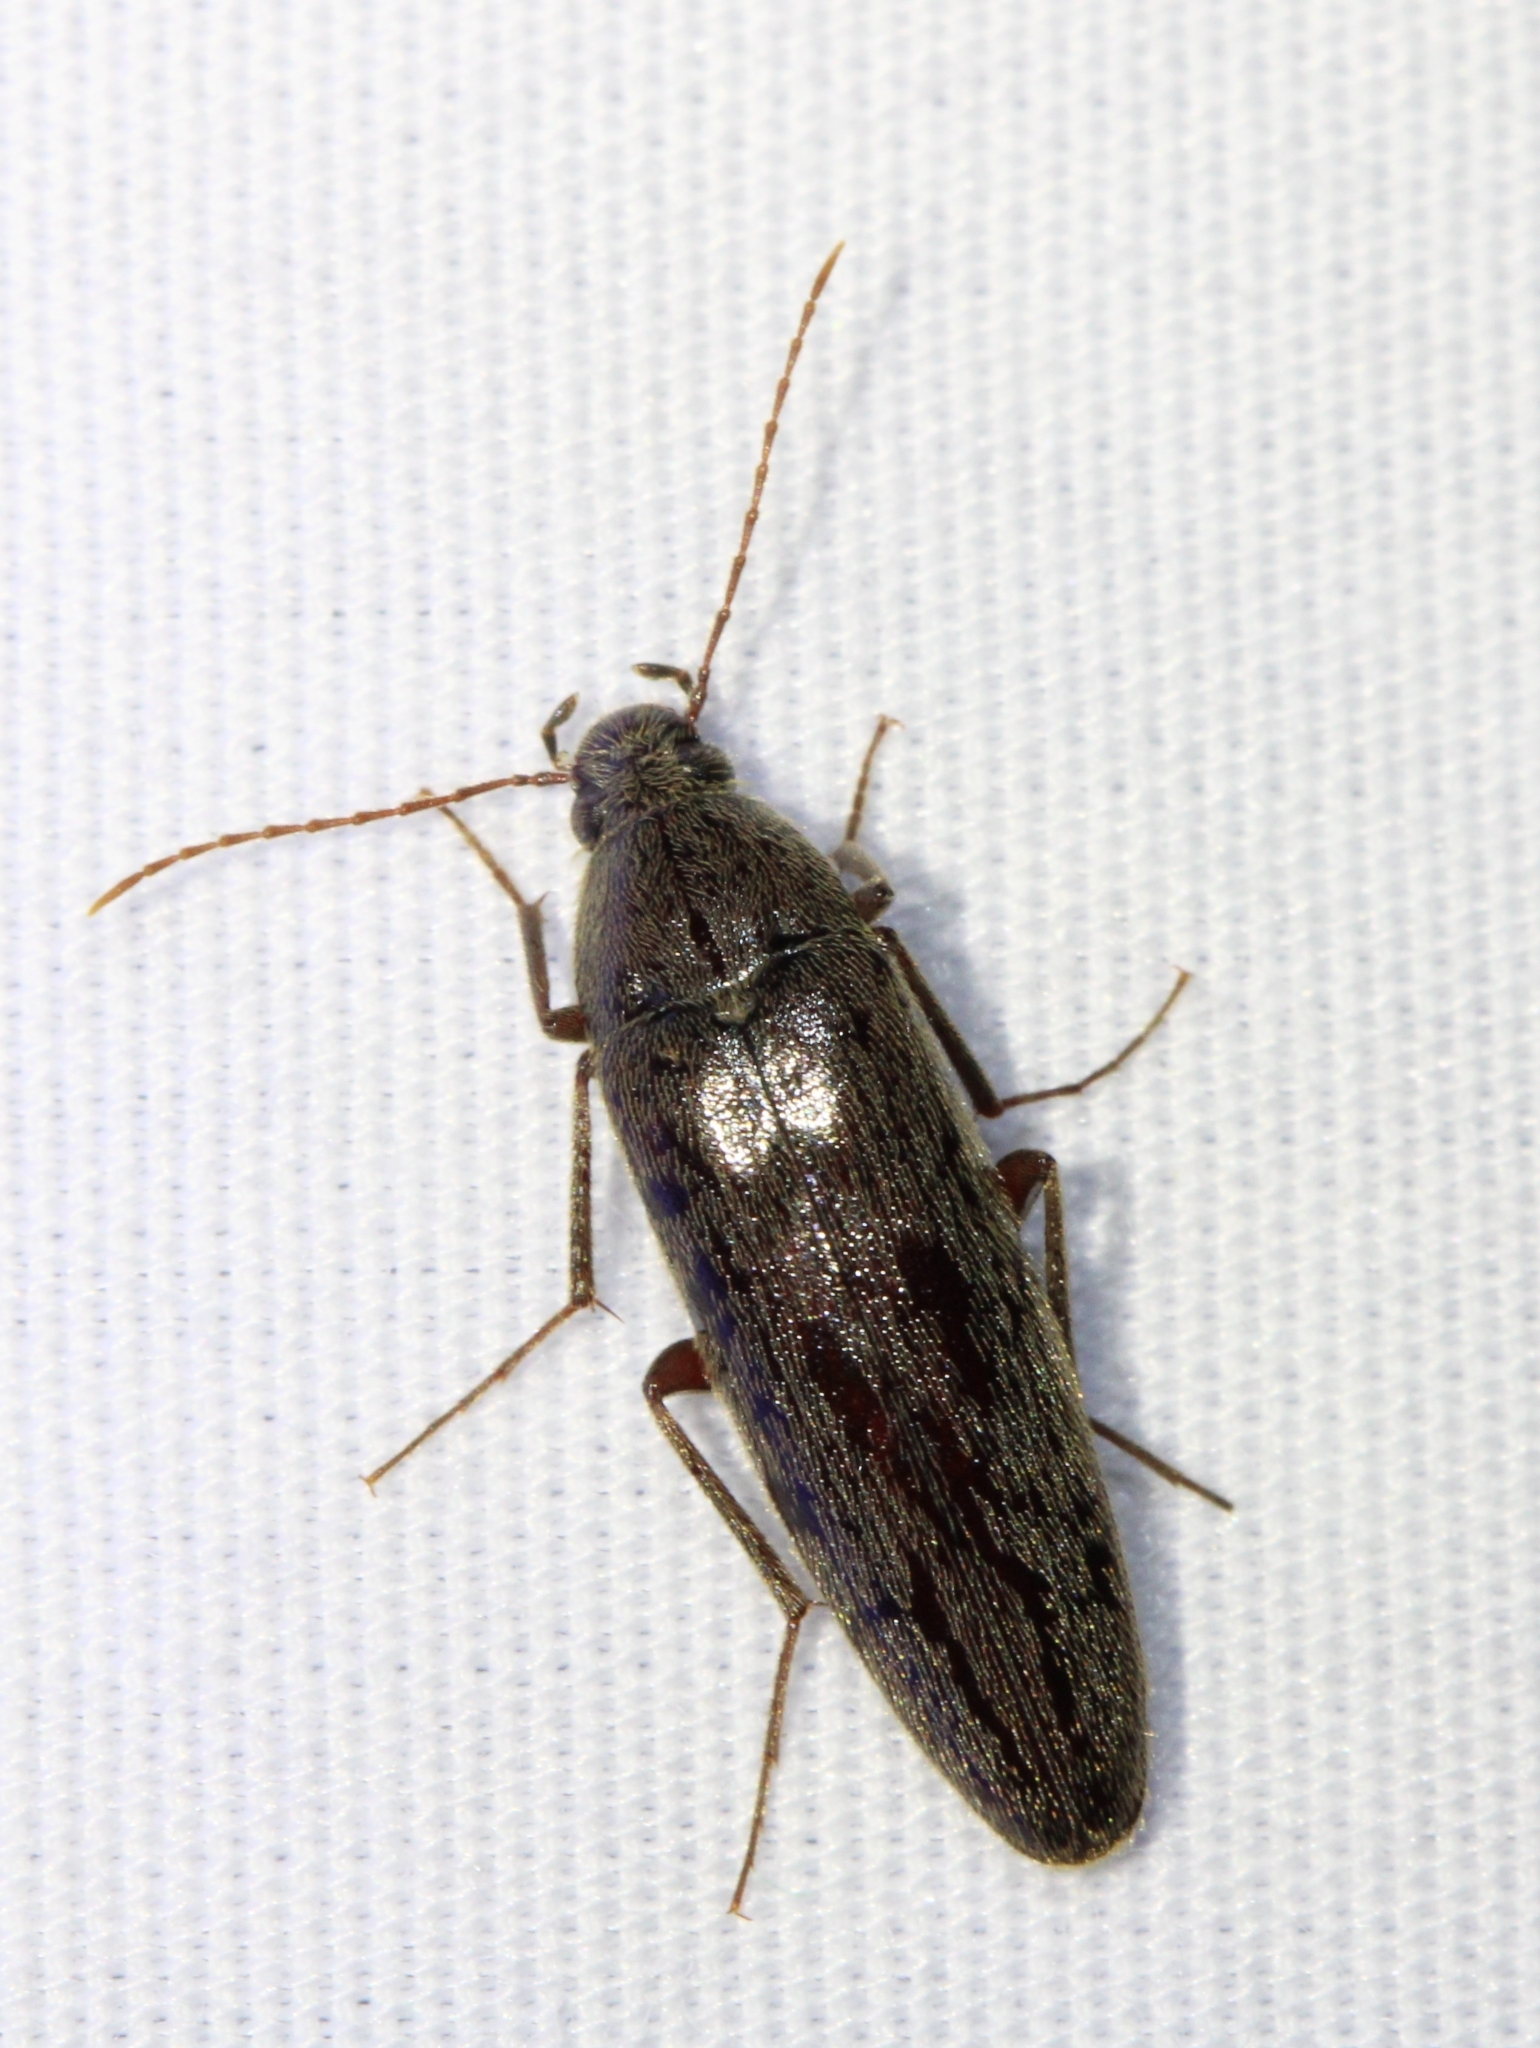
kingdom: Animalia
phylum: Arthropoda
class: Insecta
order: Coleoptera
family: Synchroidae
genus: Synchroa
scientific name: Synchroa punctata
